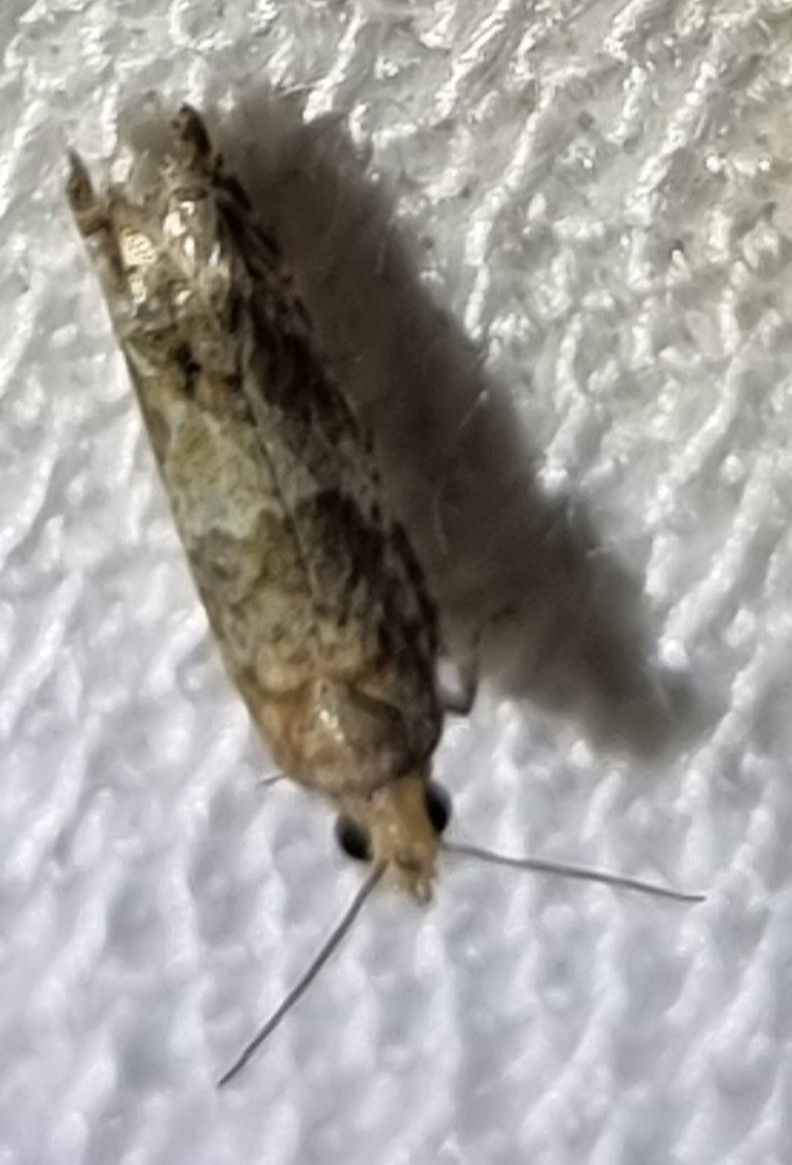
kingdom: Animalia
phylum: Arthropoda
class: Insecta
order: Lepidoptera
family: Tortricidae
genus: Crocidosema
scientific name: Crocidosema plebejana
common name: Southern bell
